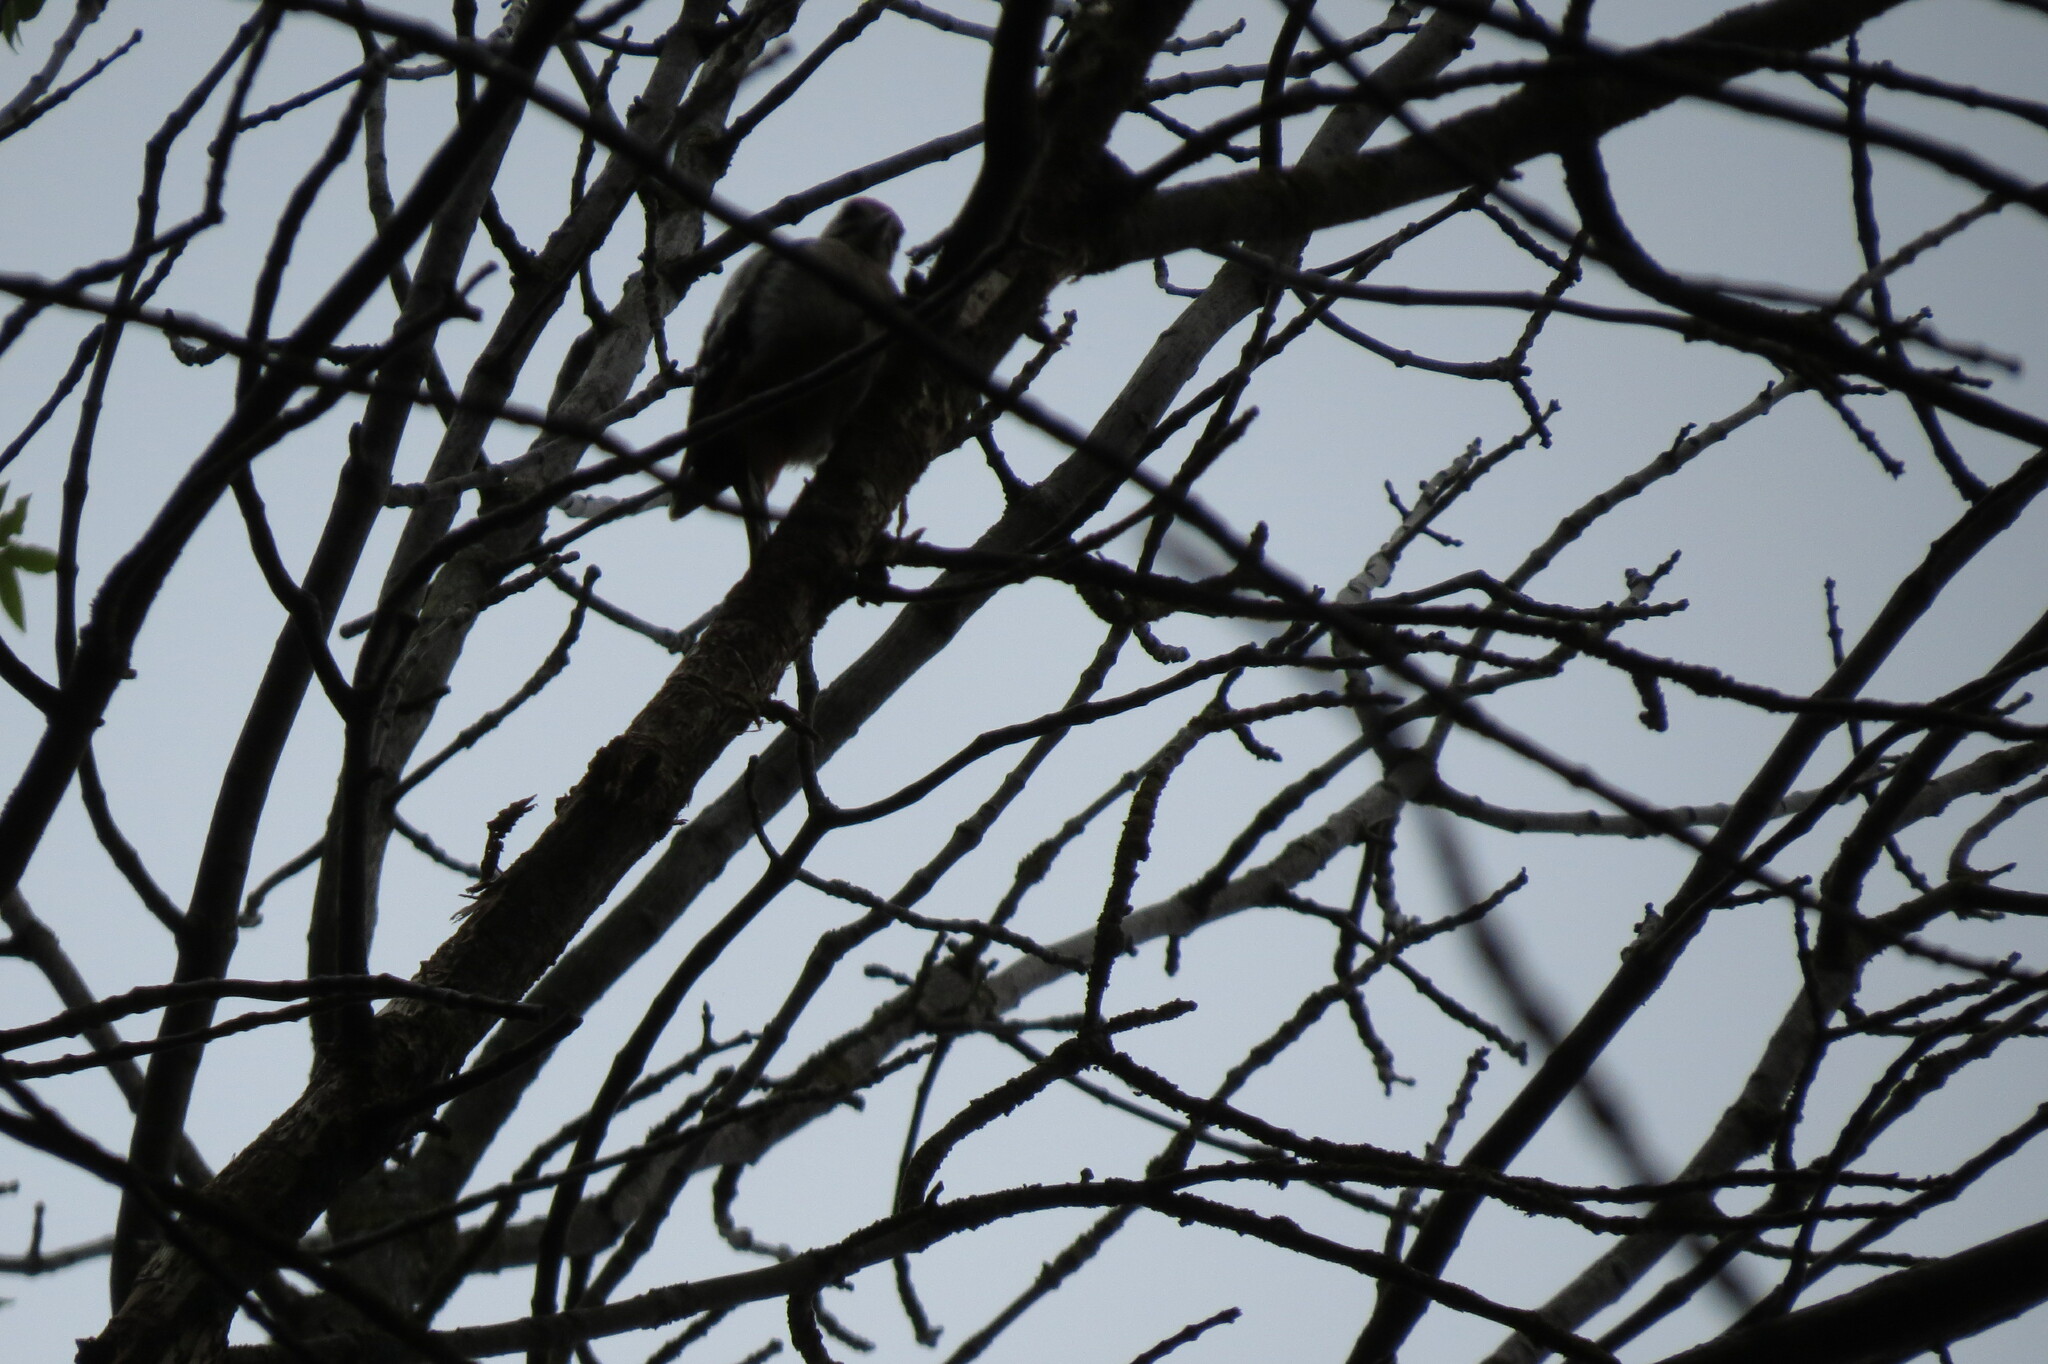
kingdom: Animalia
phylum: Chordata
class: Aves
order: Piciformes
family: Picidae
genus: Dendrocopos
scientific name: Dendrocopos major
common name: Great spotted woodpecker
